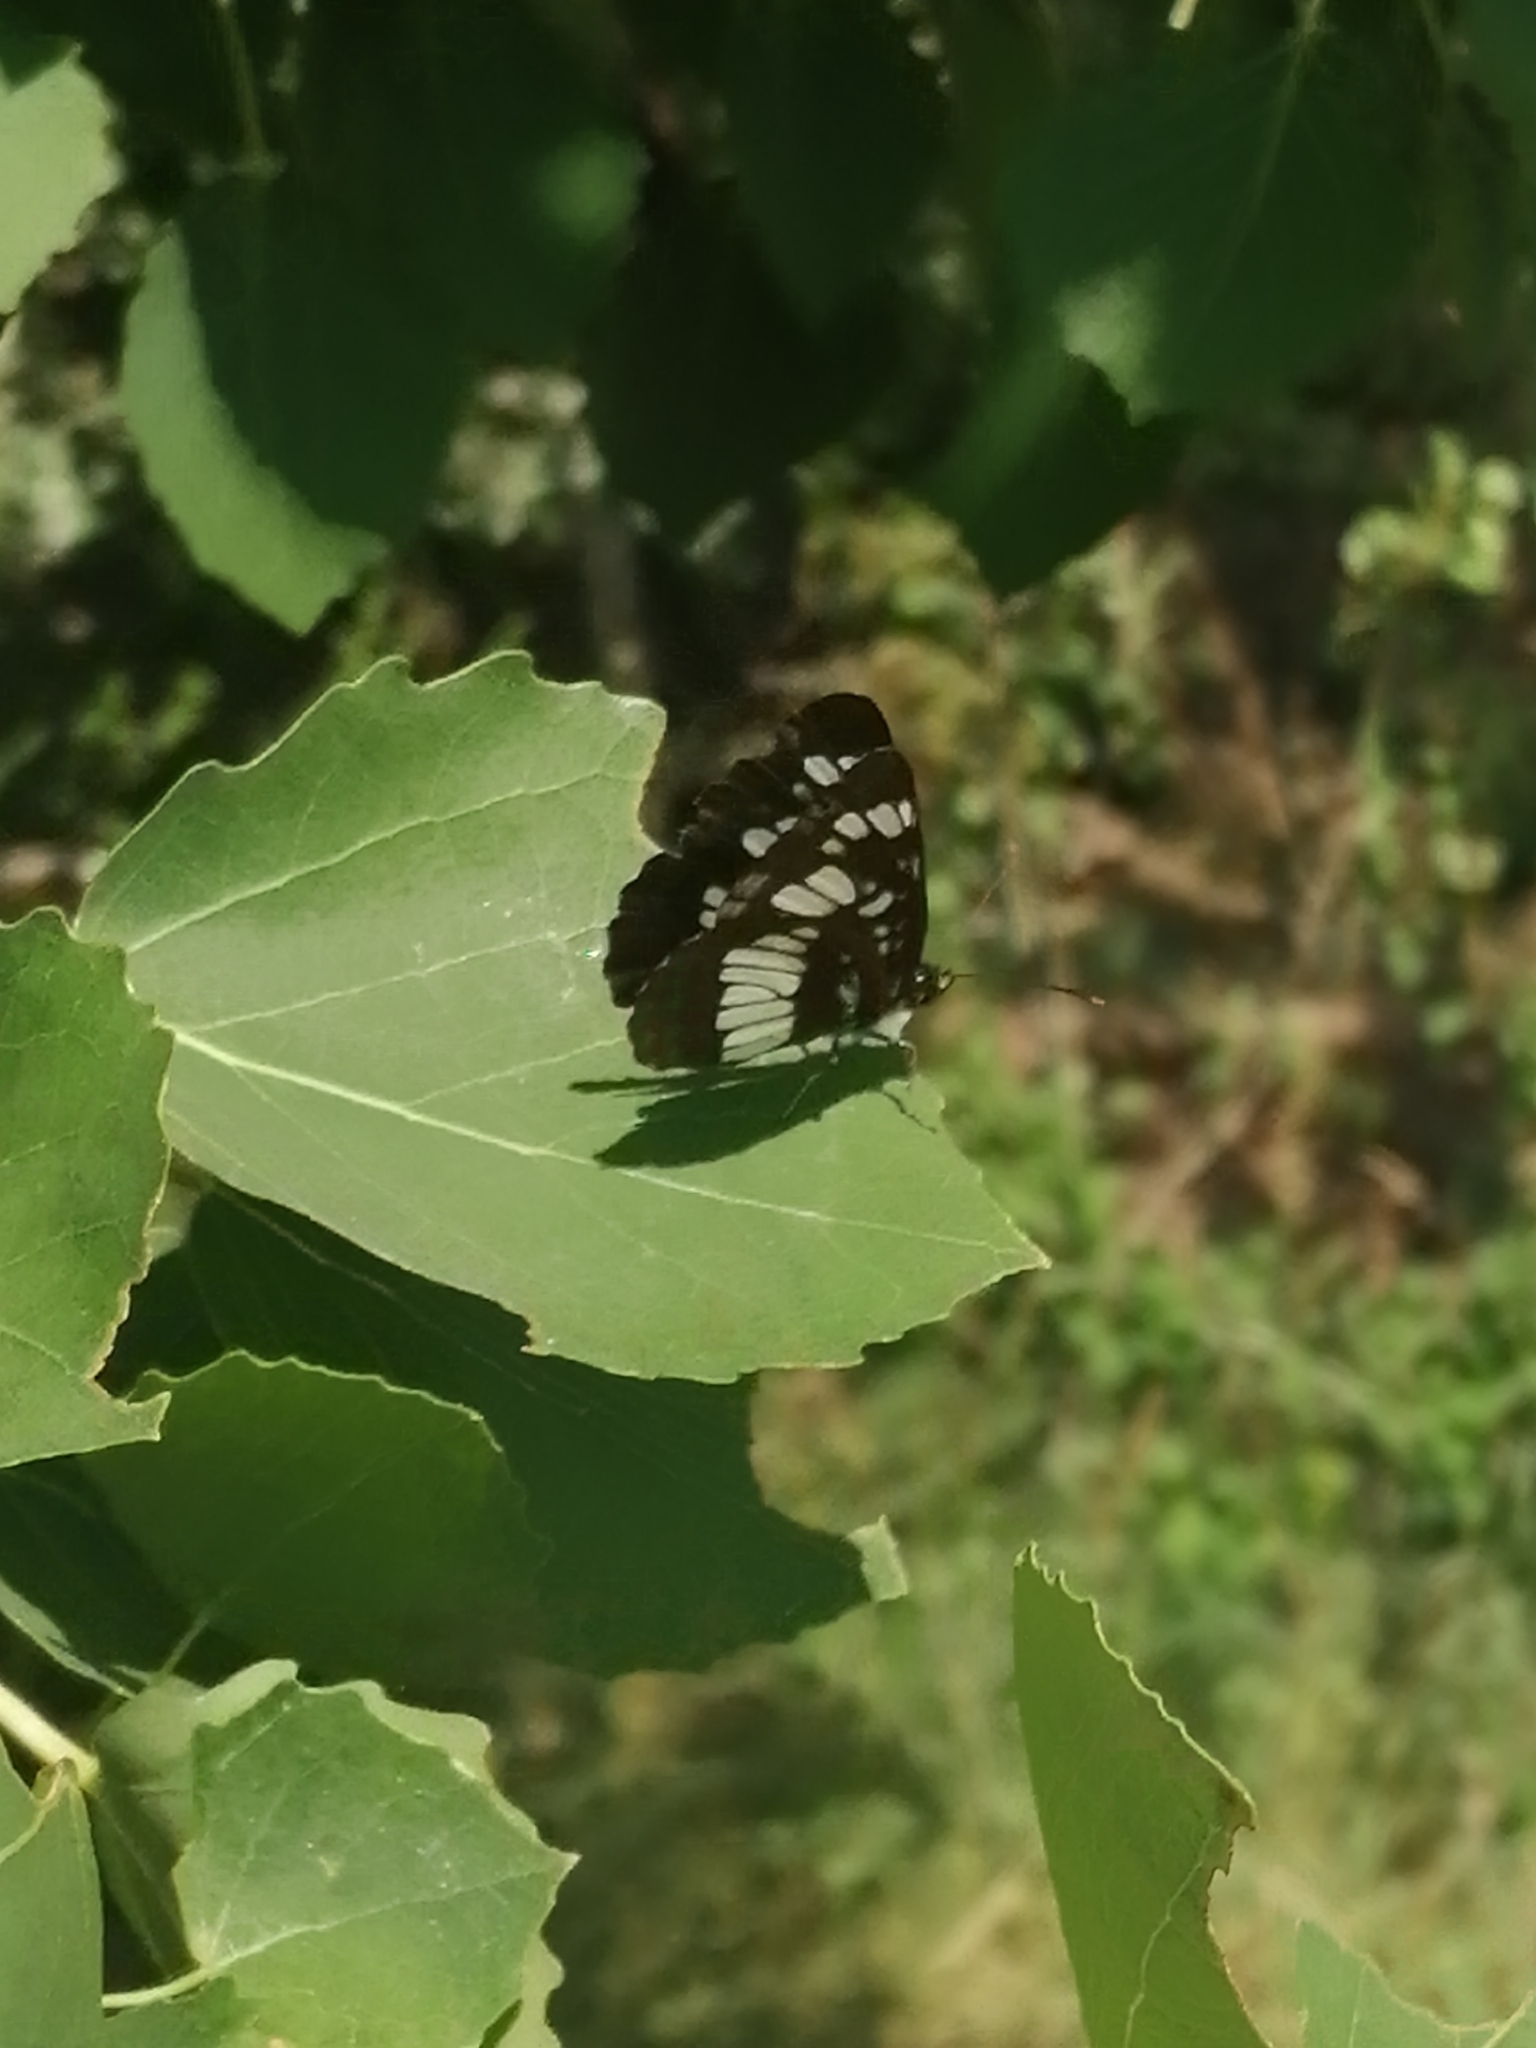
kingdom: Animalia
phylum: Arthropoda
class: Insecta
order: Lepidoptera
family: Nymphalidae
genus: Neptis
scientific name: Neptis rivularis
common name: Hungarian glider
